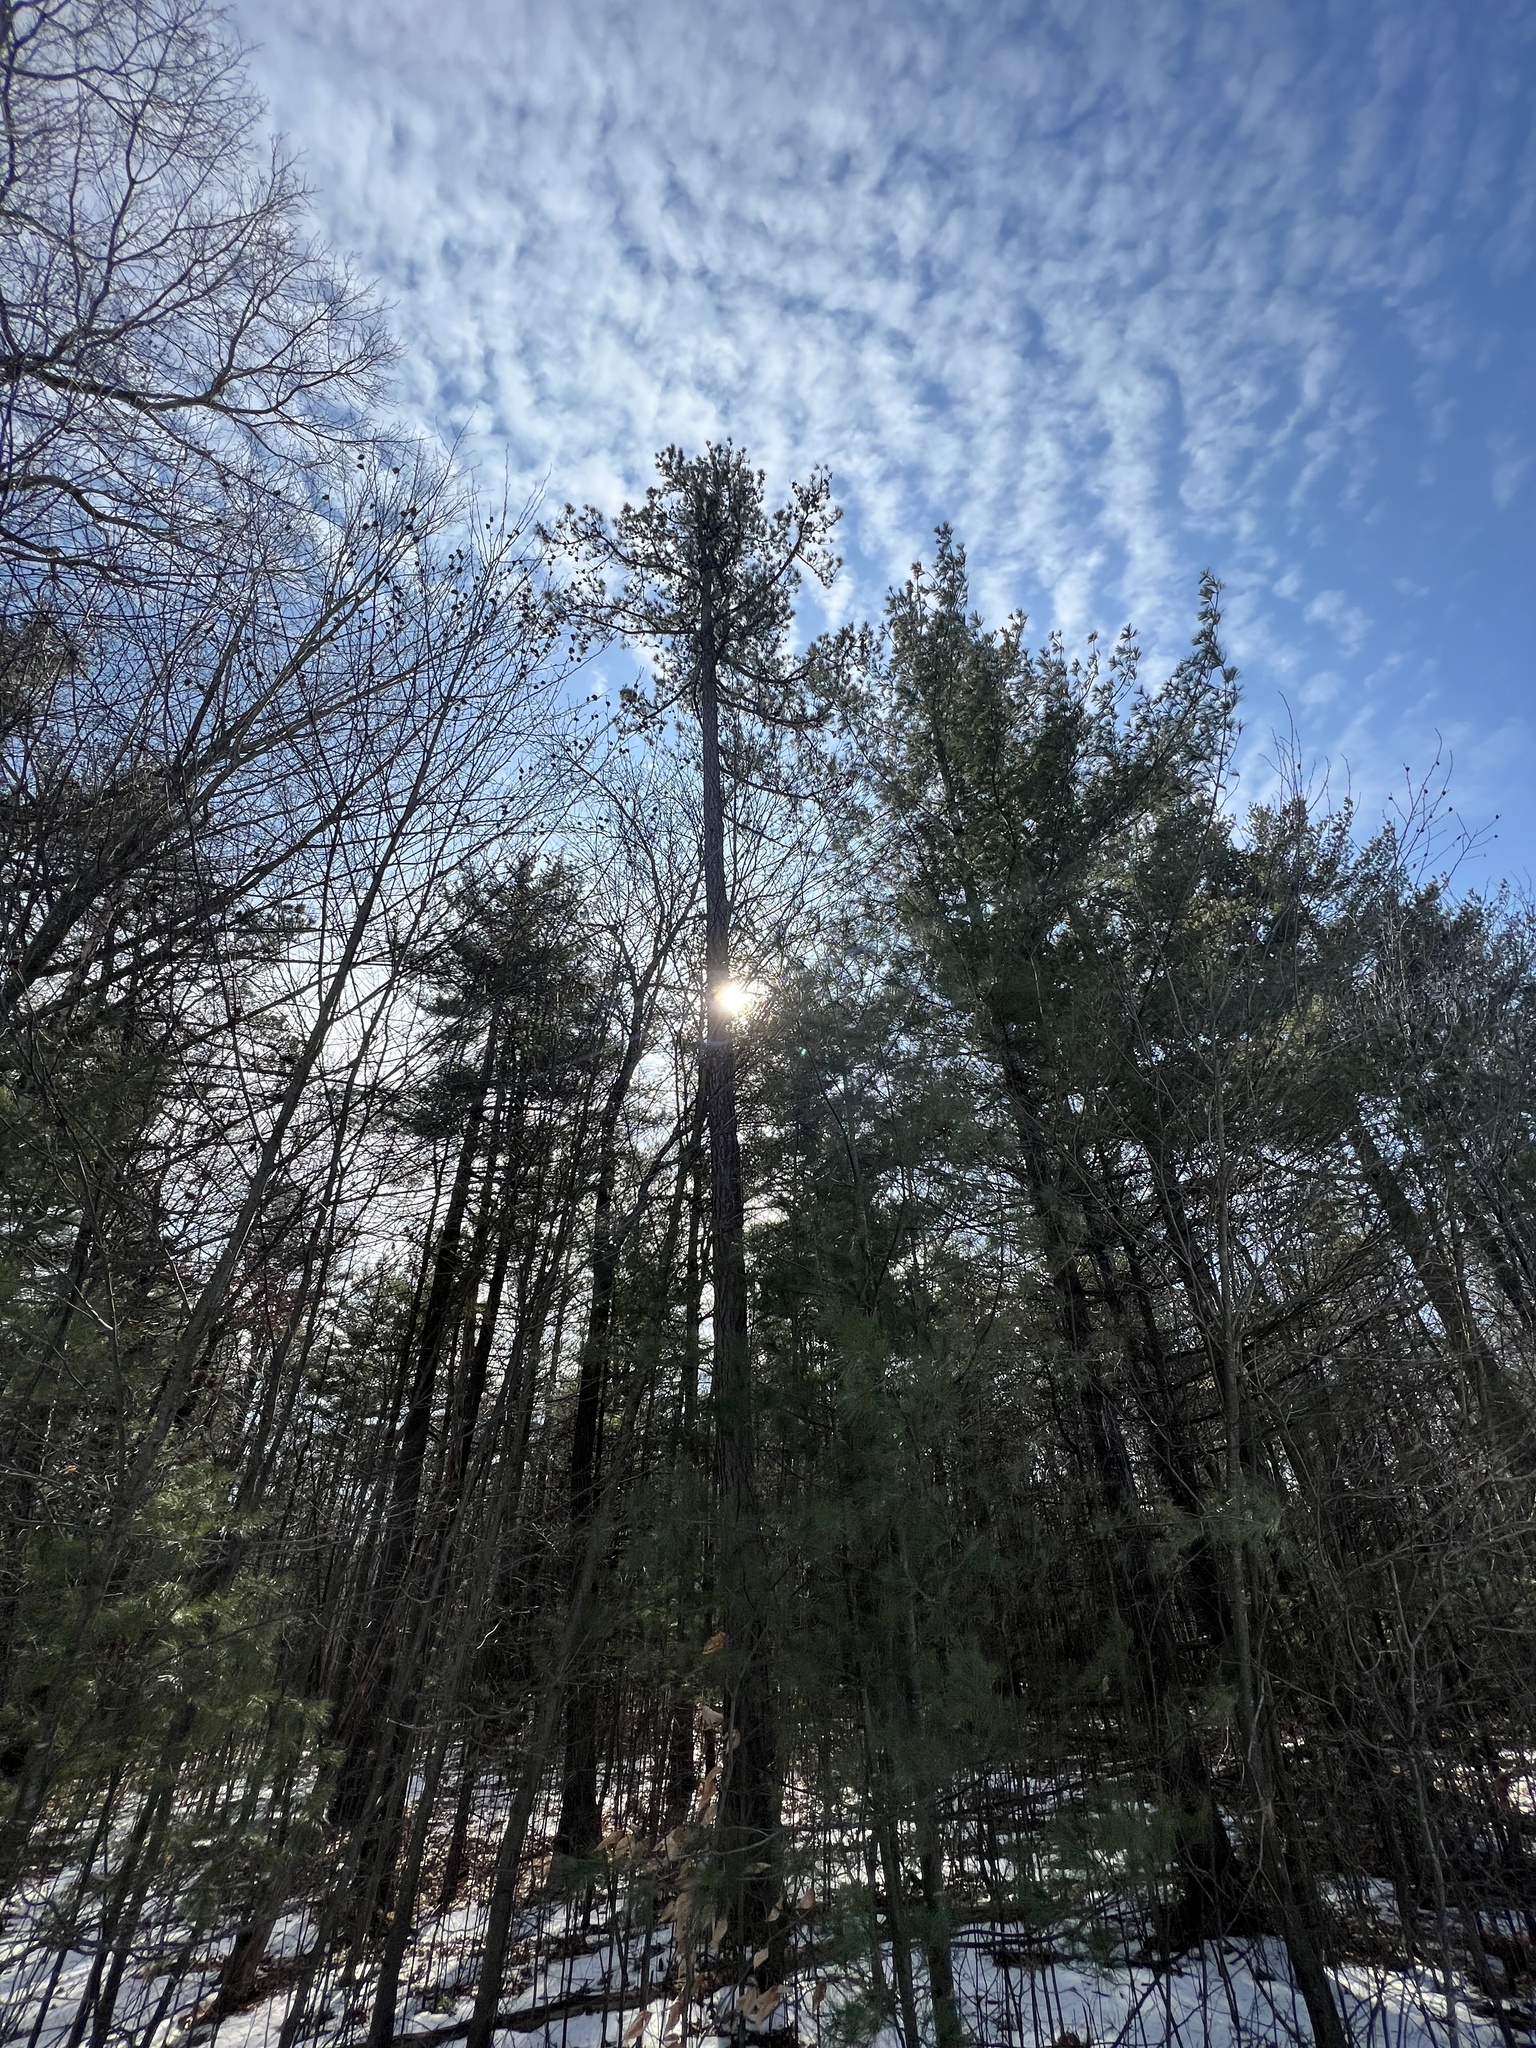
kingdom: Plantae
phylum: Tracheophyta
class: Pinopsida
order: Pinales
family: Pinaceae
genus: Pinus
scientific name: Pinus rigida
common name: Pitch pine
